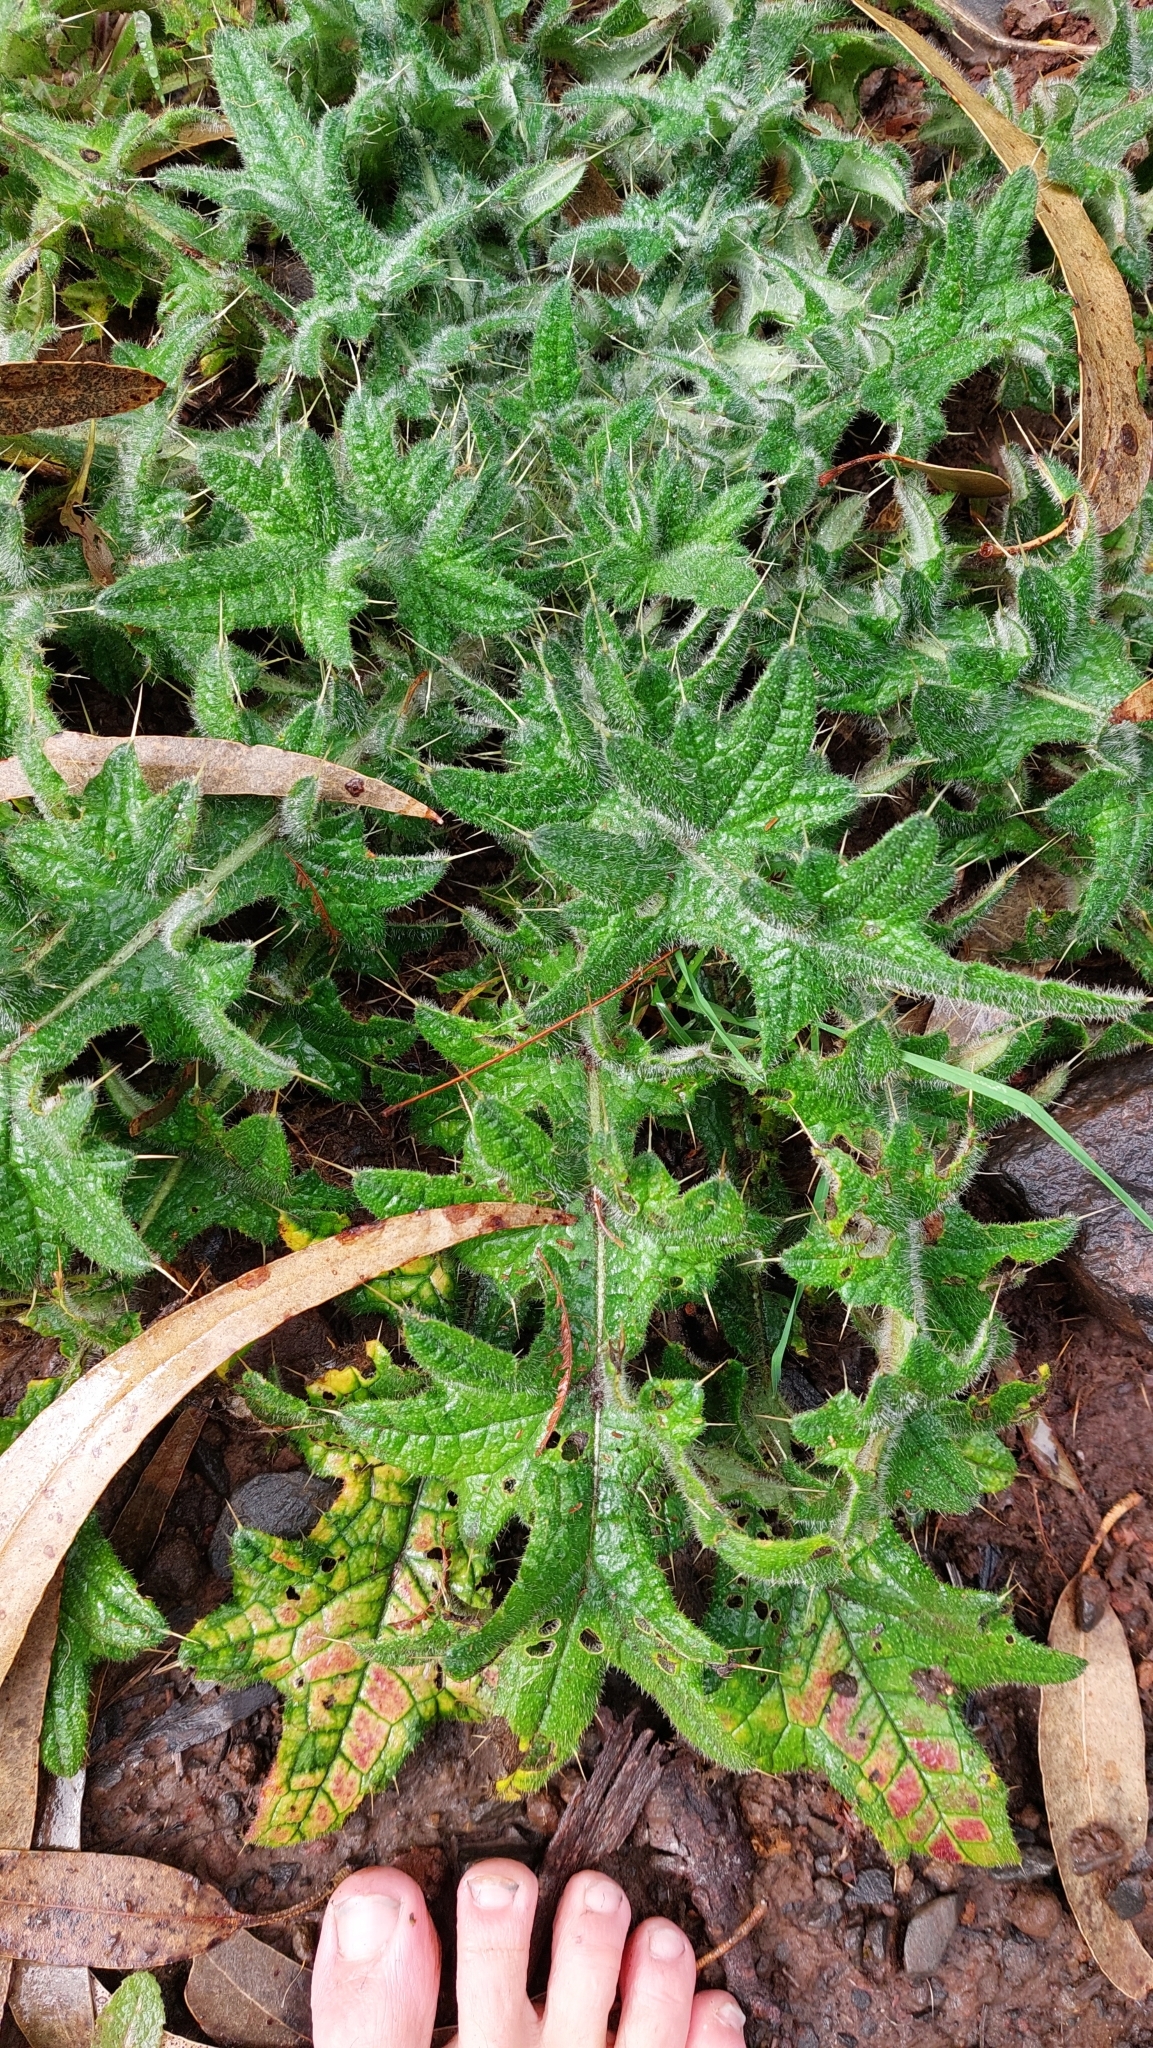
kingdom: Plantae
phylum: Tracheophyta
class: Magnoliopsida
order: Asterales
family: Asteraceae
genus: Cirsium
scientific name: Cirsium vulgare
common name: Bull thistle
